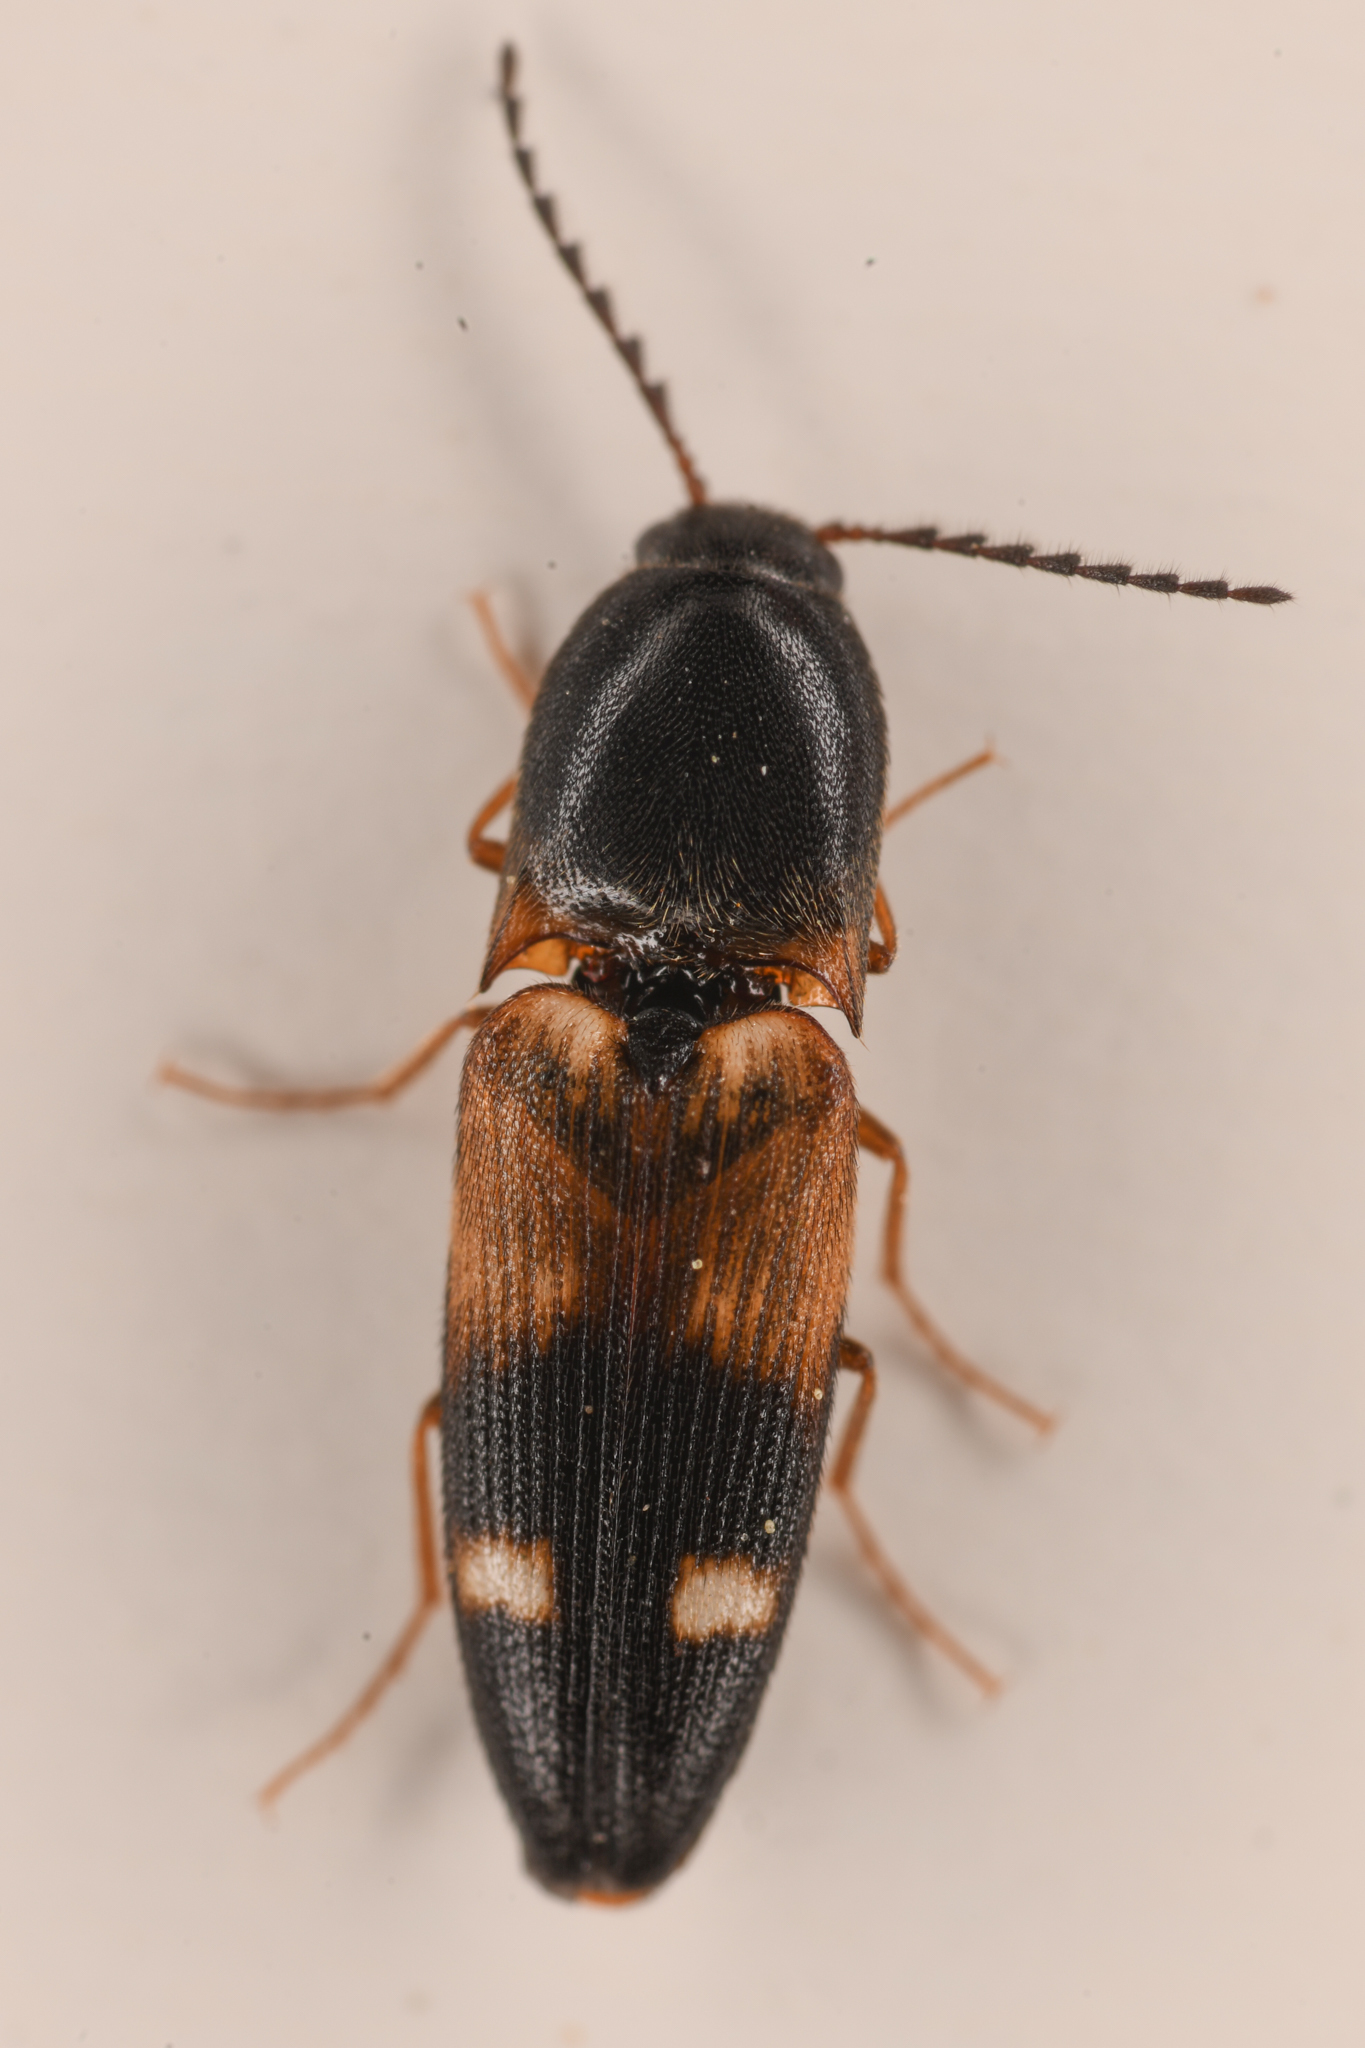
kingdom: Animalia
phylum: Arthropoda
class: Insecta
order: Coleoptera
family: Elateridae
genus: Megapenthes
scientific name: Megapenthes gentneri
